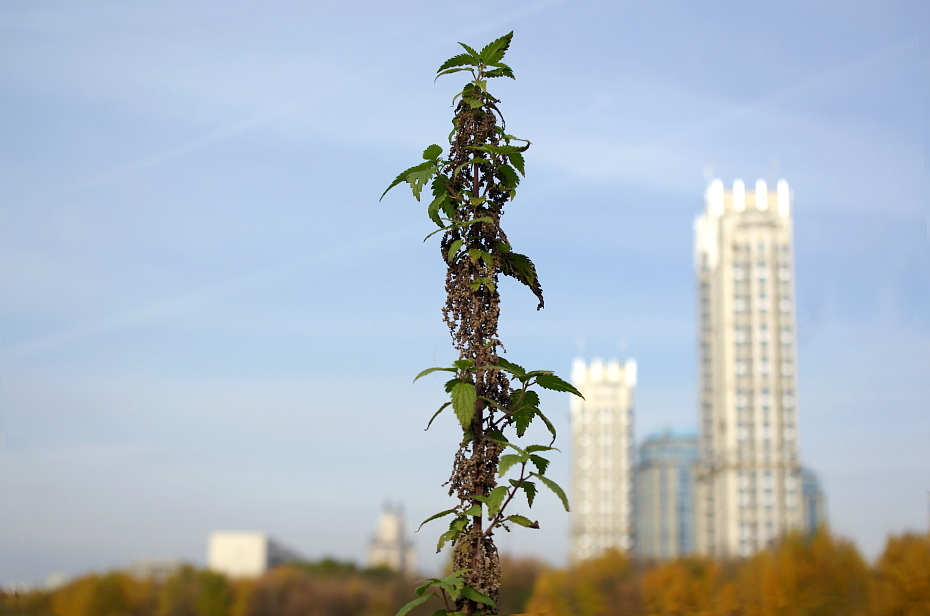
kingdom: Plantae
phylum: Tracheophyta
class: Magnoliopsida
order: Rosales
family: Urticaceae
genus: Urtica
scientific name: Urtica dioica
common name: Common nettle
